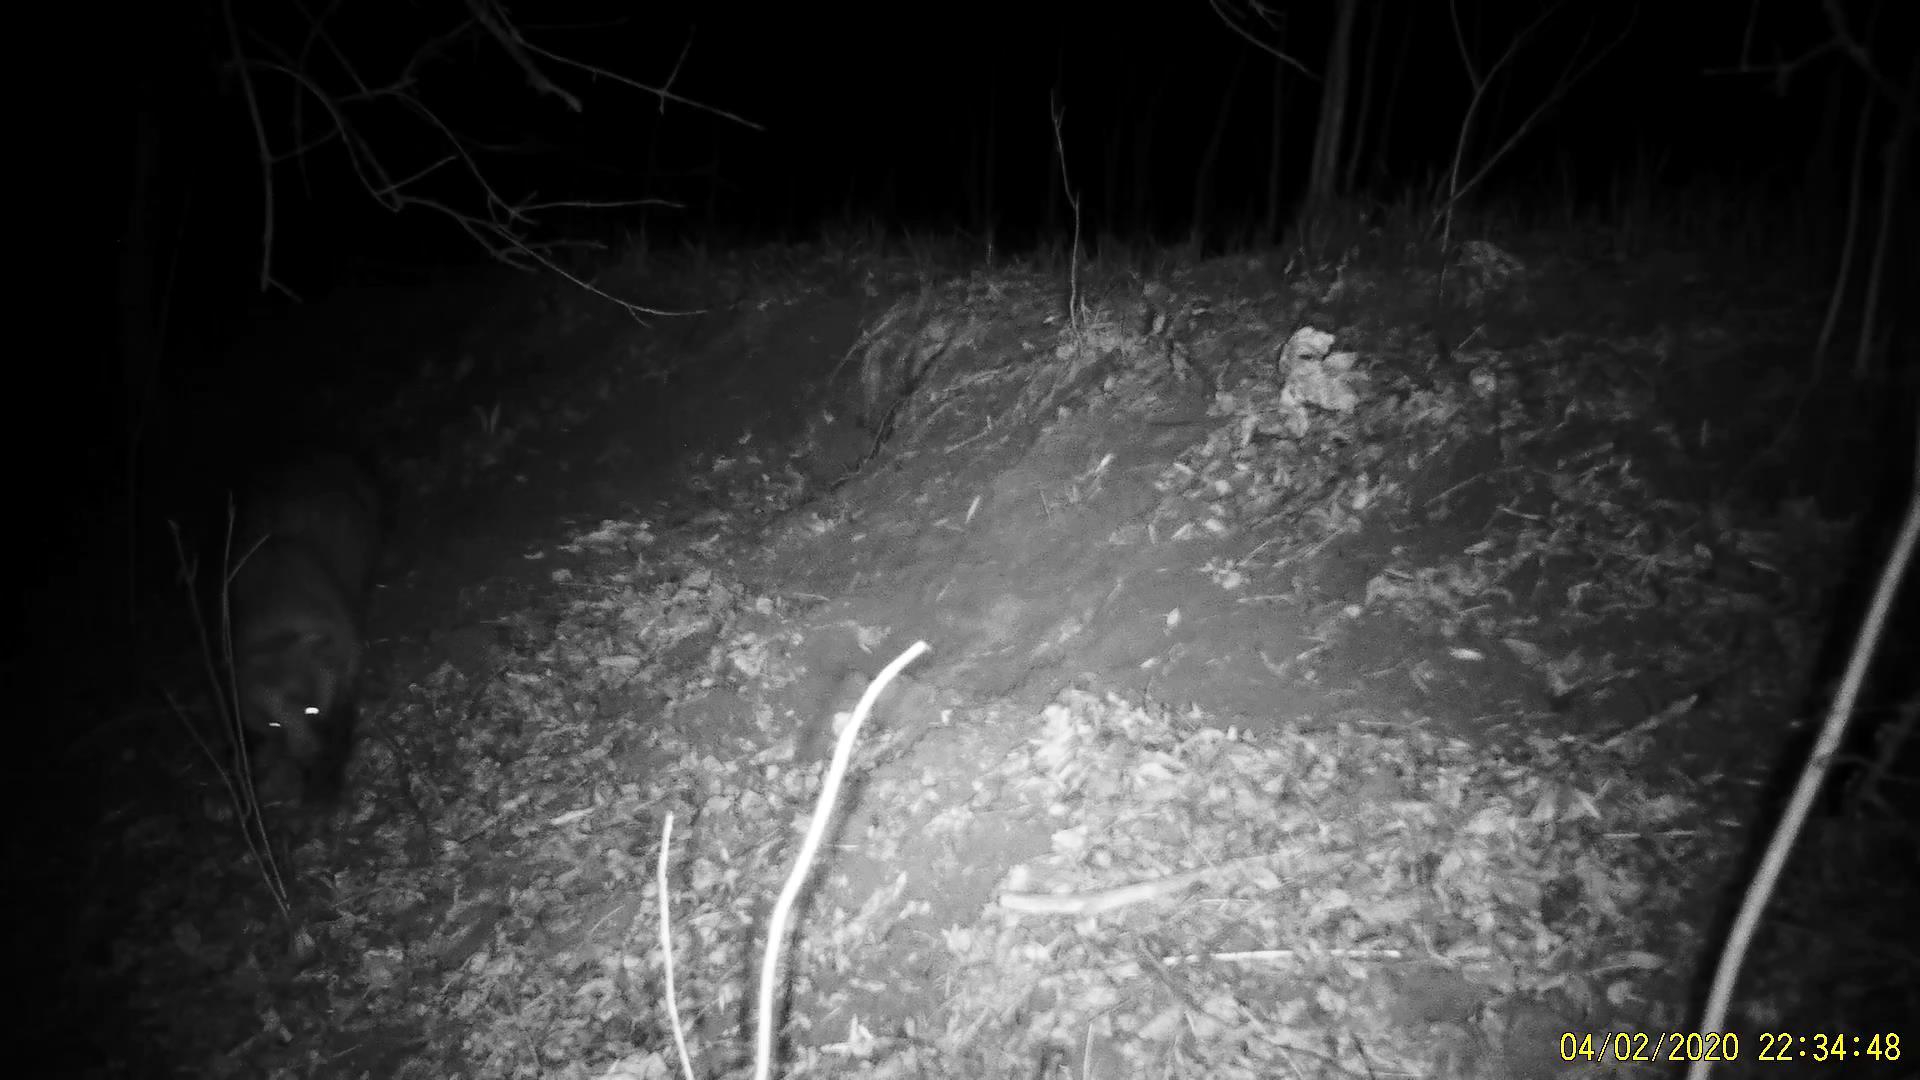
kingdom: Animalia
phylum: Chordata
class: Mammalia
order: Carnivora
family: Mustelidae
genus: Meles
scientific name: Meles leucurus
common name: Asian badger
